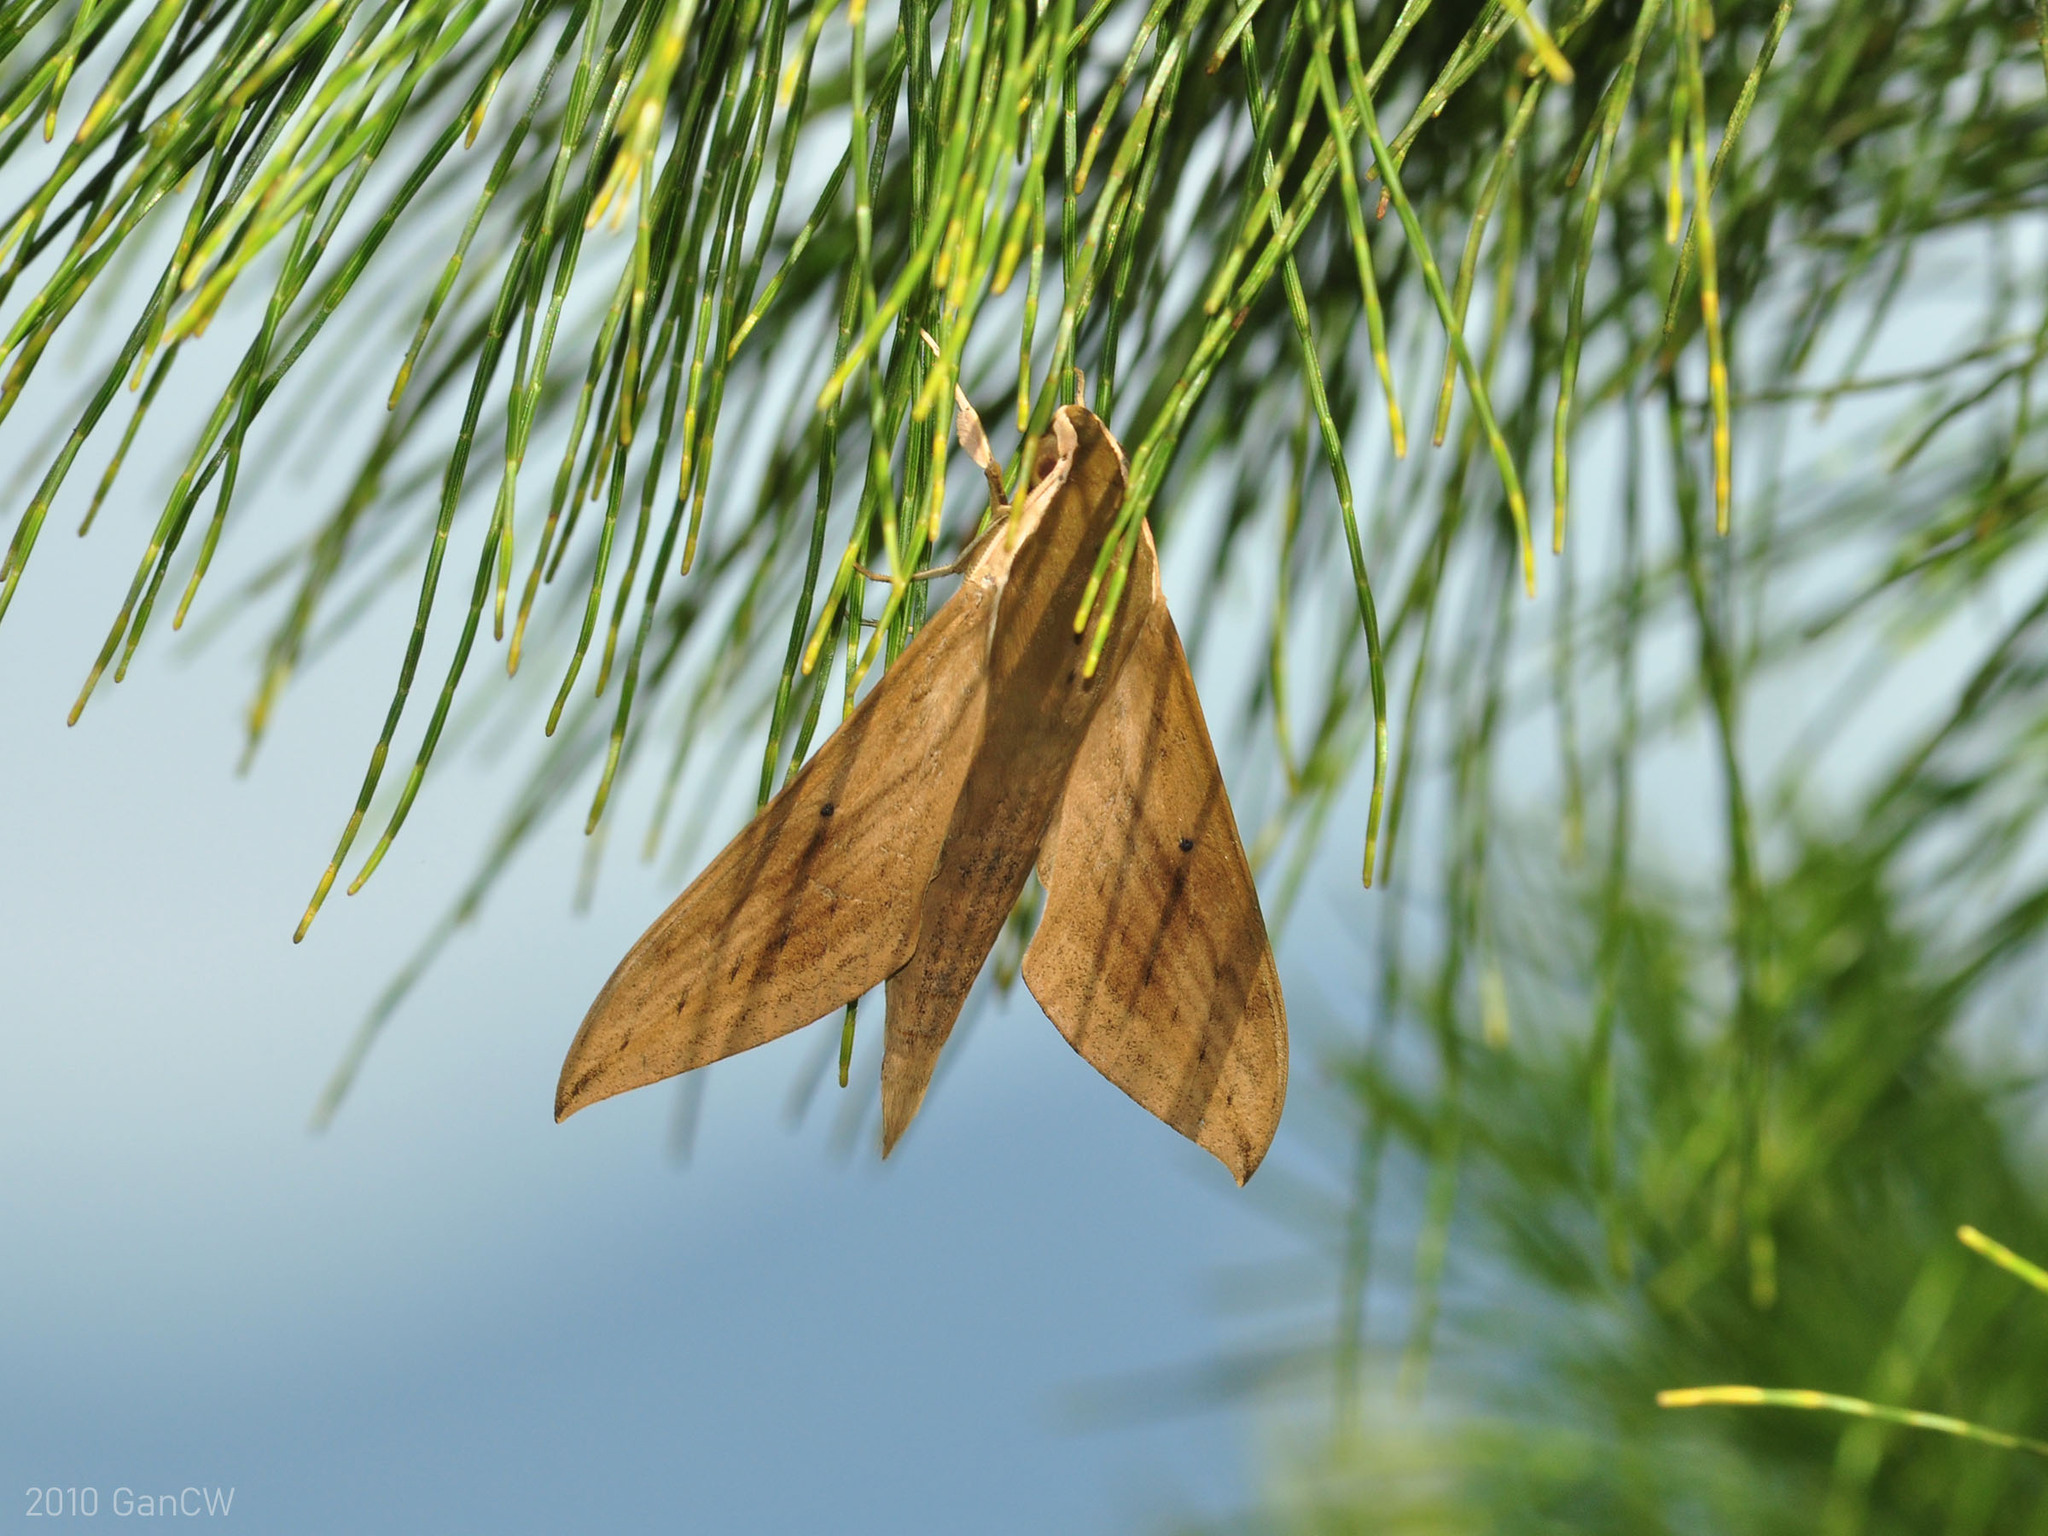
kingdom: Animalia
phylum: Arthropoda
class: Insecta
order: Lepidoptera
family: Sphingidae
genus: Theretra
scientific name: Theretra rhesus
